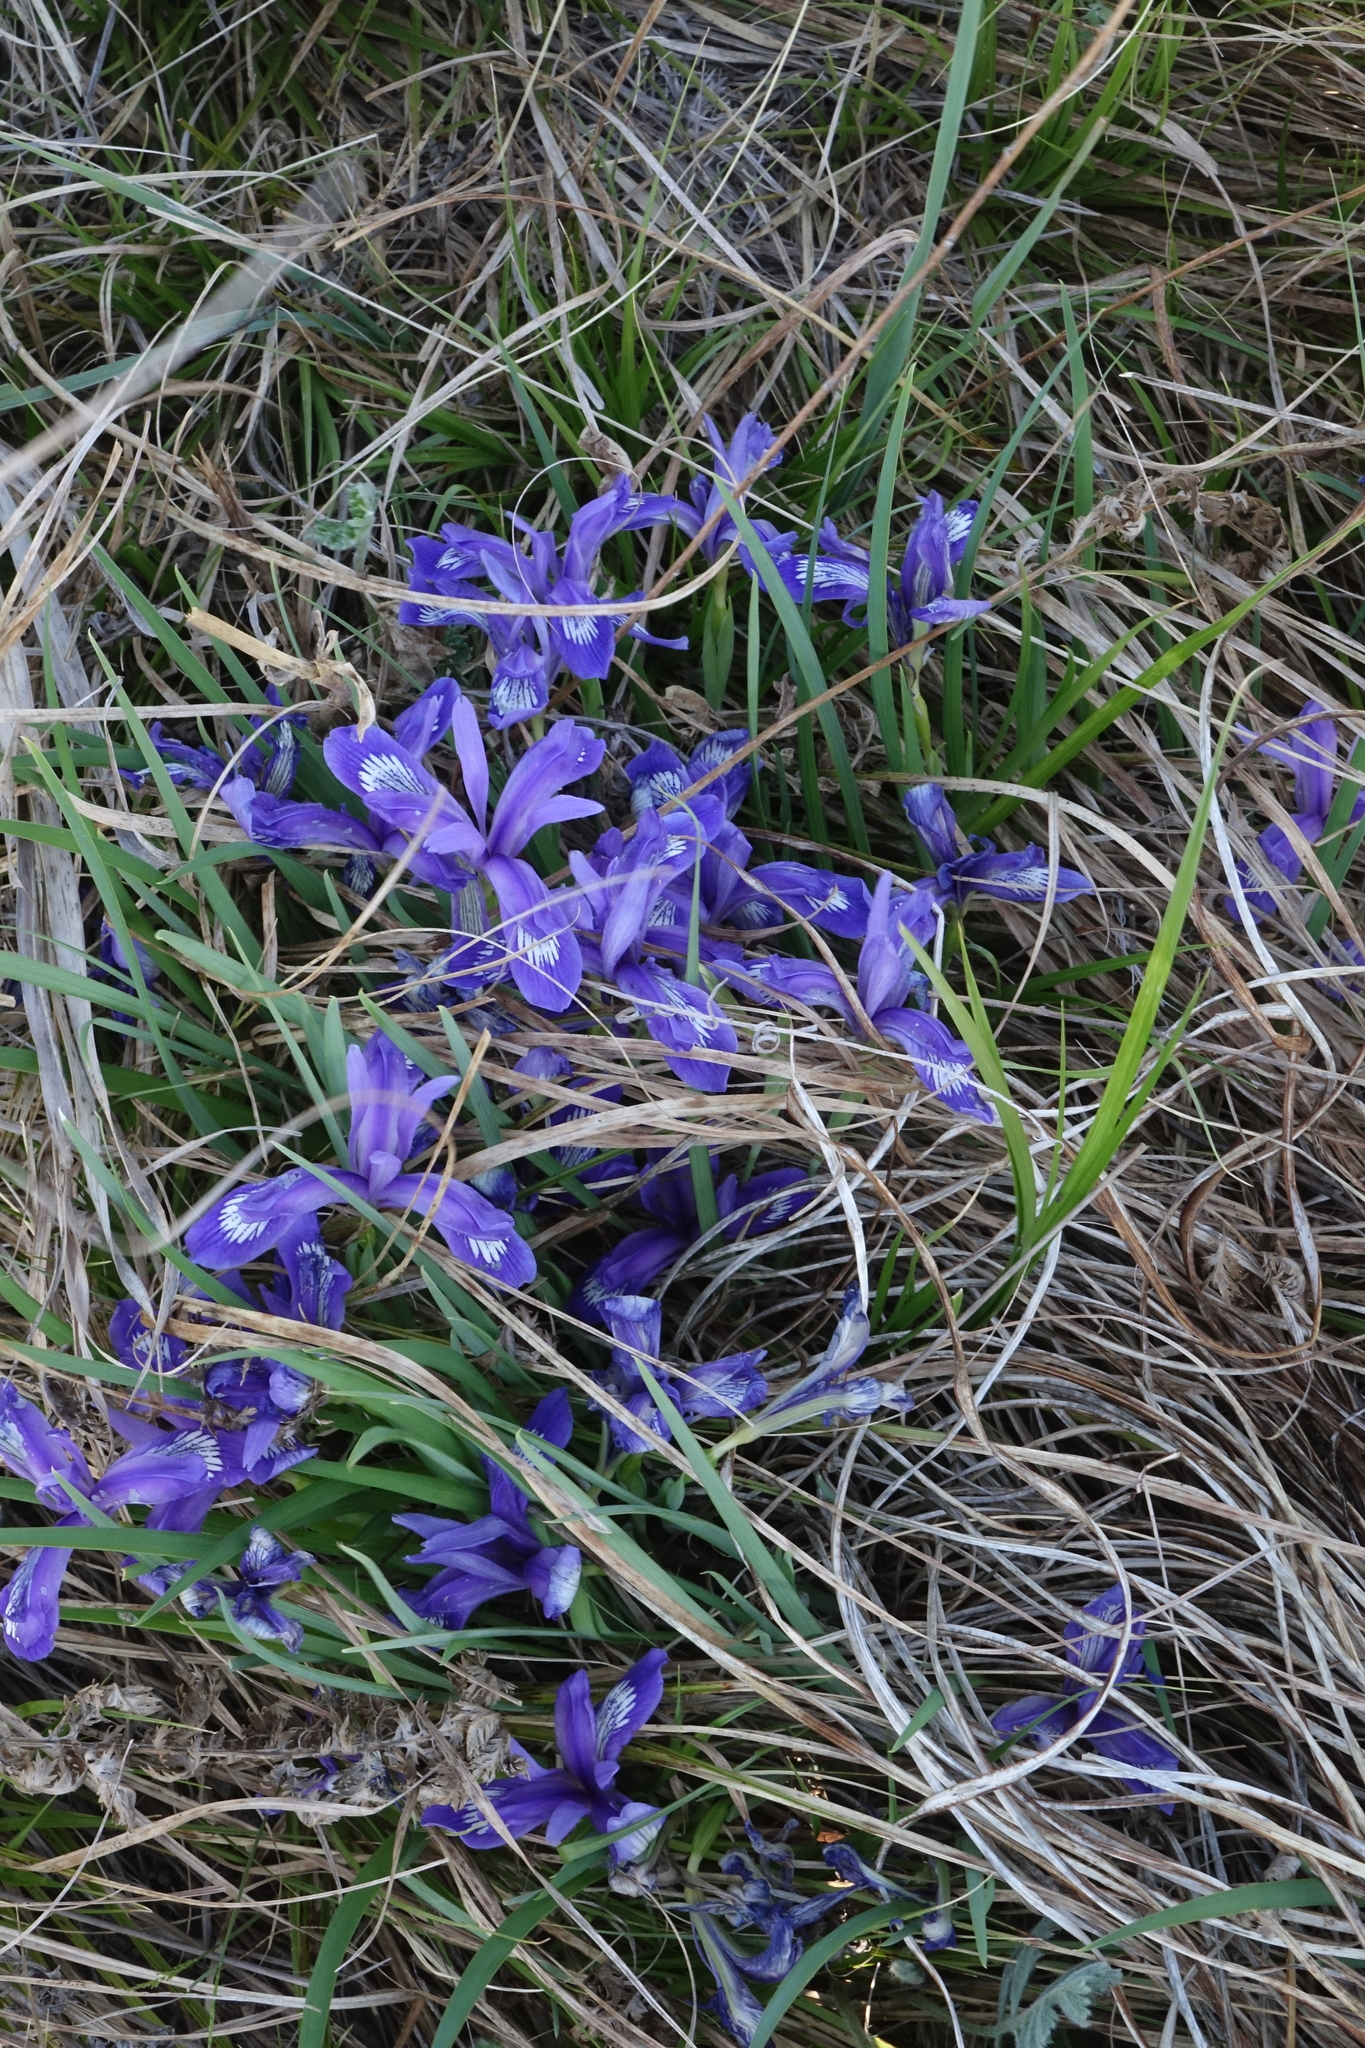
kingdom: Plantae
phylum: Tracheophyta
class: Liliopsida
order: Asparagales
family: Iridaceae
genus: Iris
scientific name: Iris ruthenica
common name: Purple-bract iris
